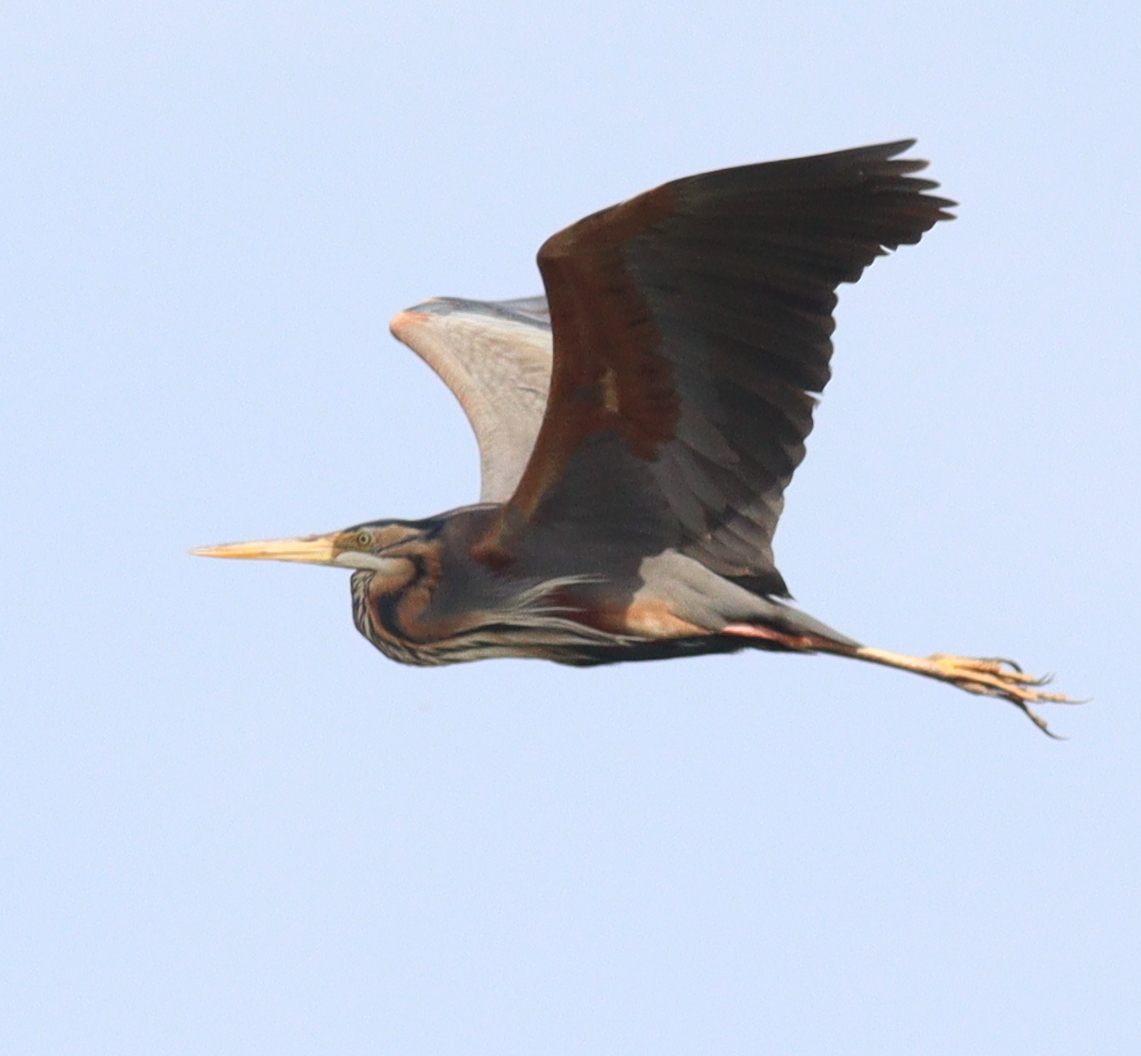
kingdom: Animalia
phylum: Chordata
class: Aves
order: Pelecaniformes
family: Ardeidae
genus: Ardea
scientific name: Ardea purpurea
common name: Purple heron
